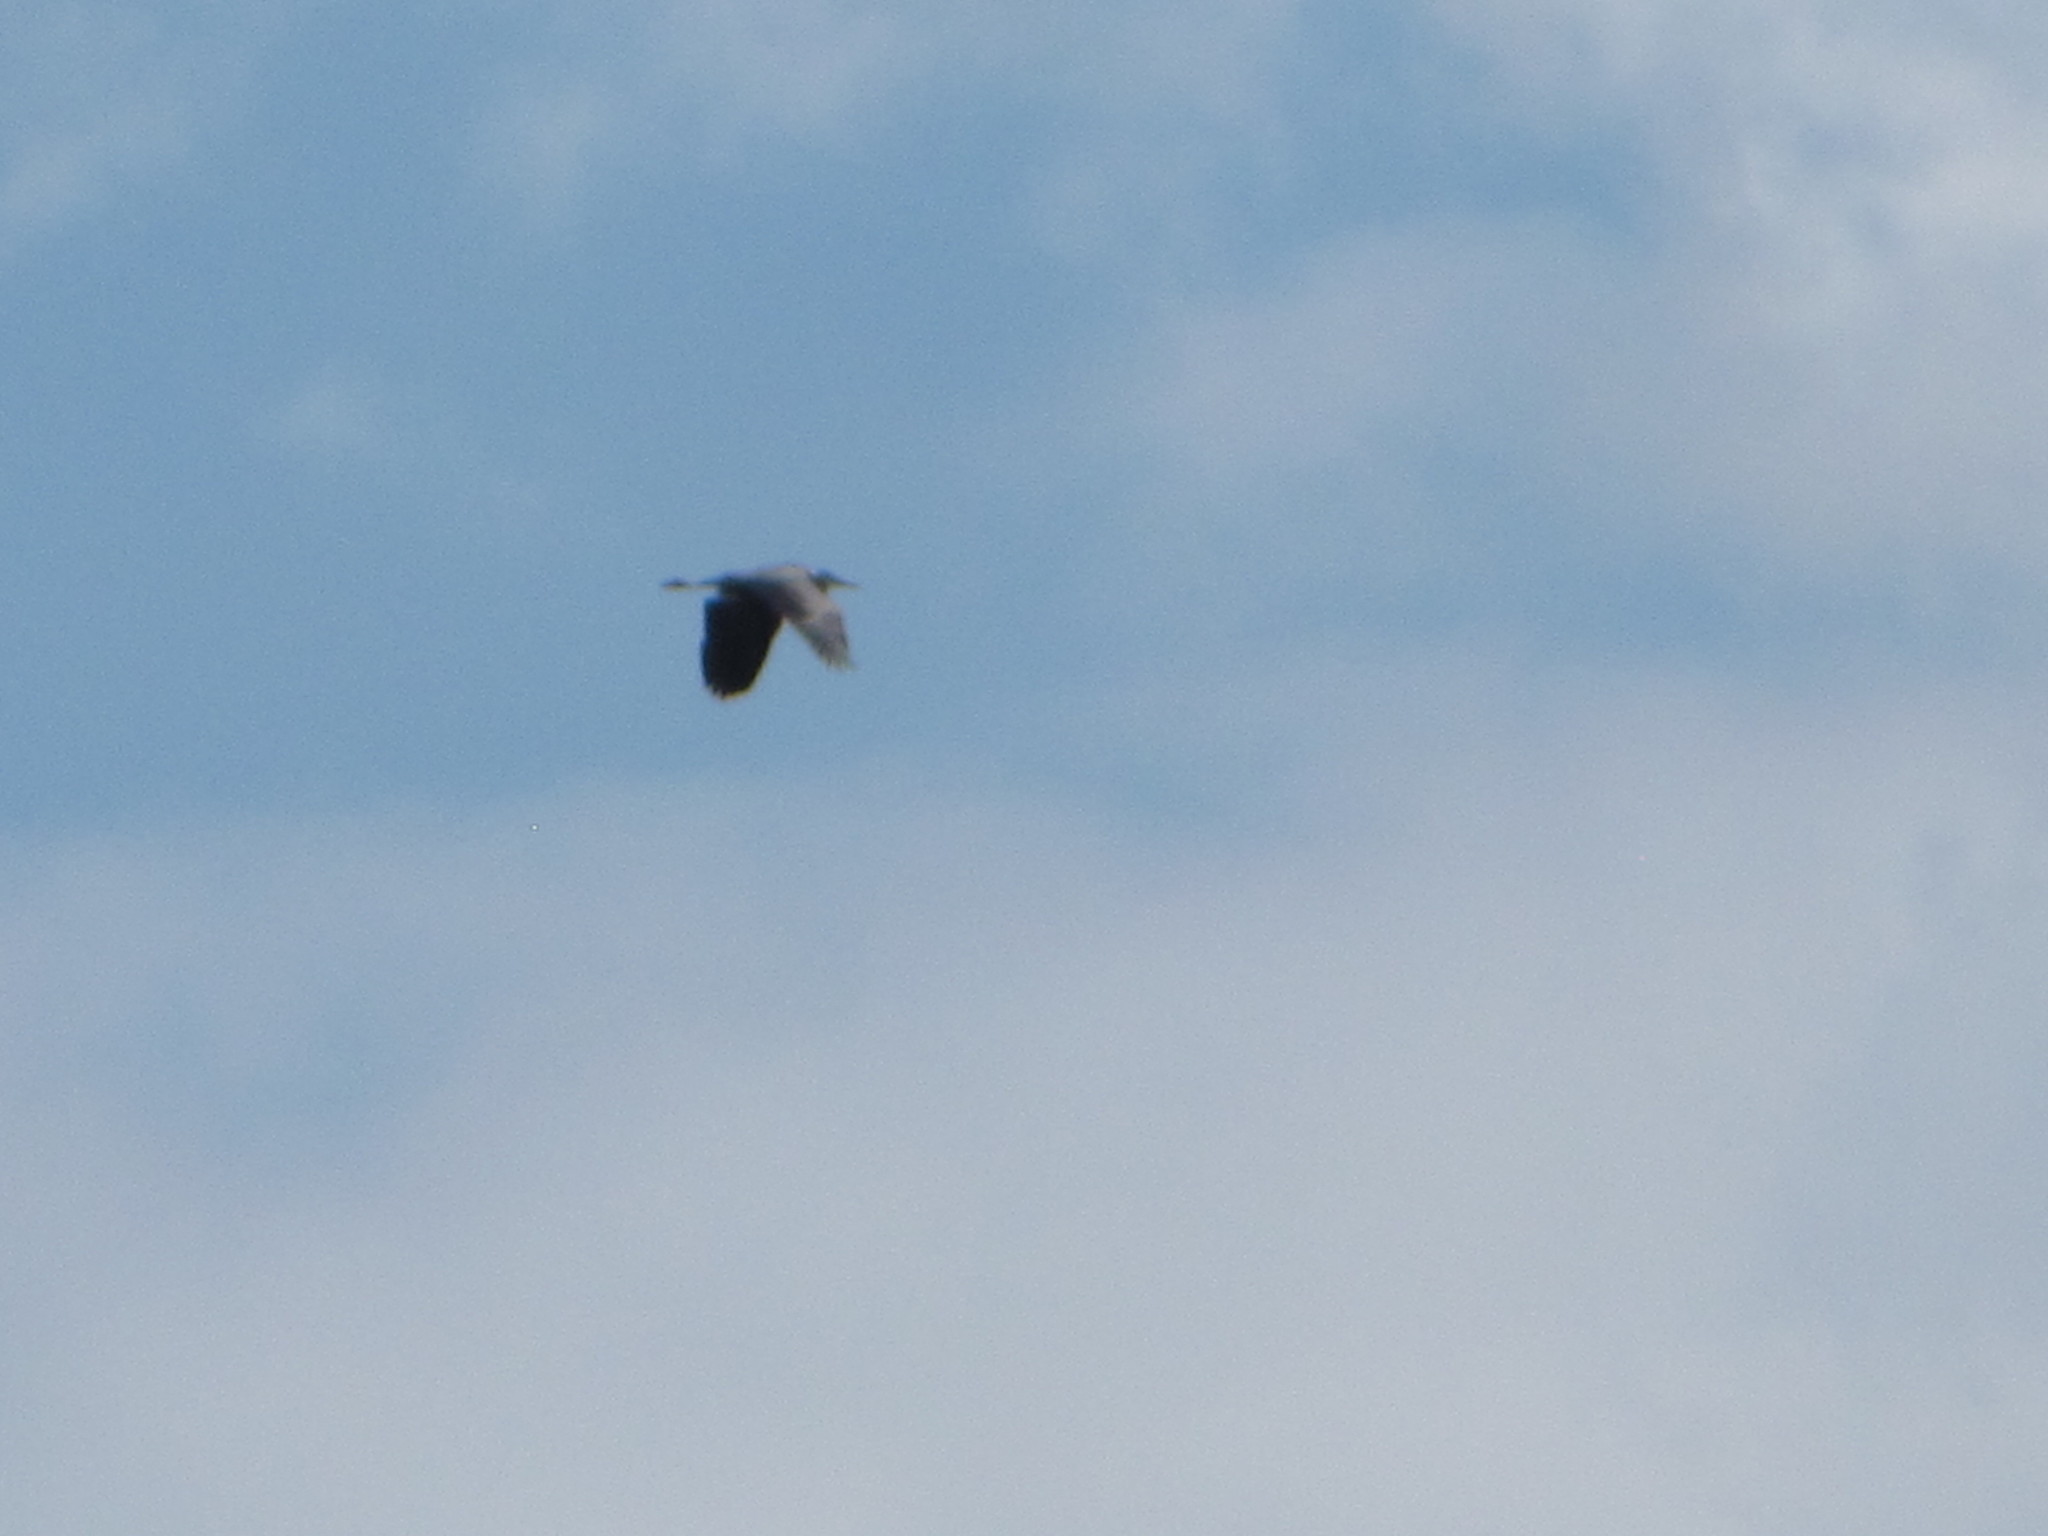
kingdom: Animalia
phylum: Chordata
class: Aves
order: Pelecaniformes
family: Ardeidae
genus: Ardea
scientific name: Ardea herodias
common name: Great blue heron
